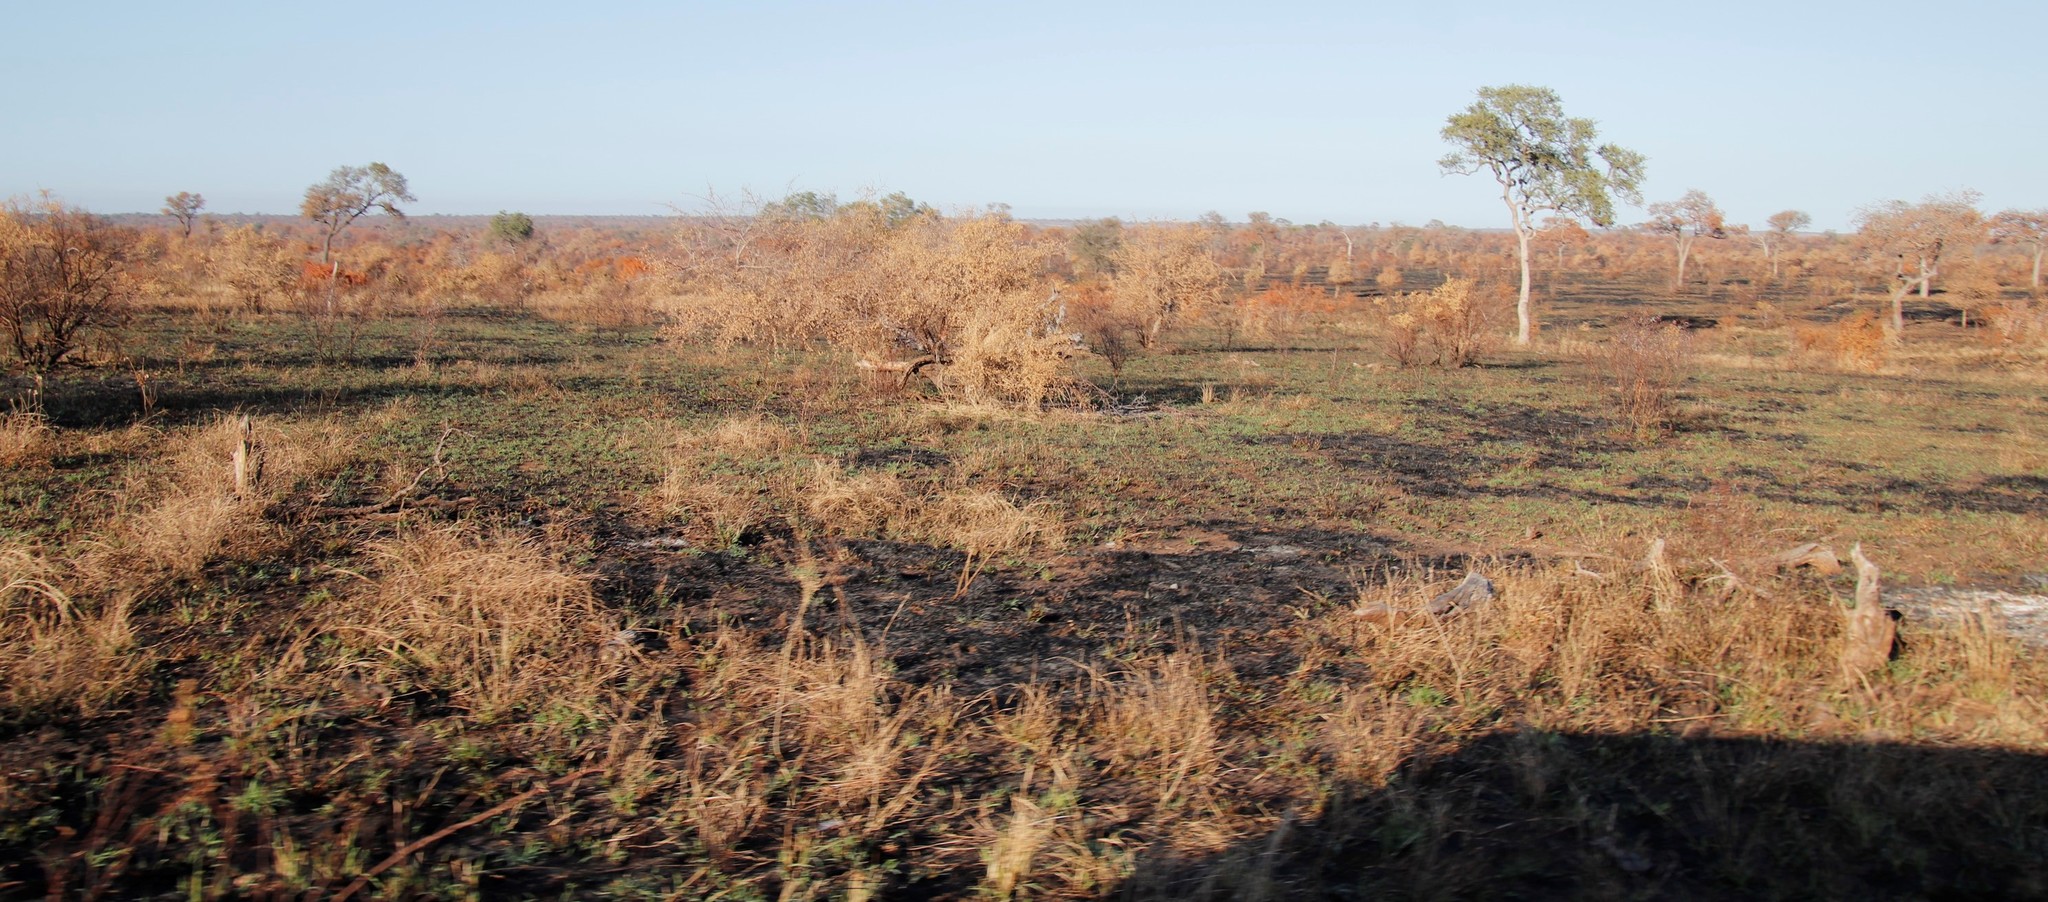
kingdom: Plantae
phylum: Tracheophyta
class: Magnoliopsida
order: Fabales
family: Fabaceae
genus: Philenoptera
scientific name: Philenoptera violacea
